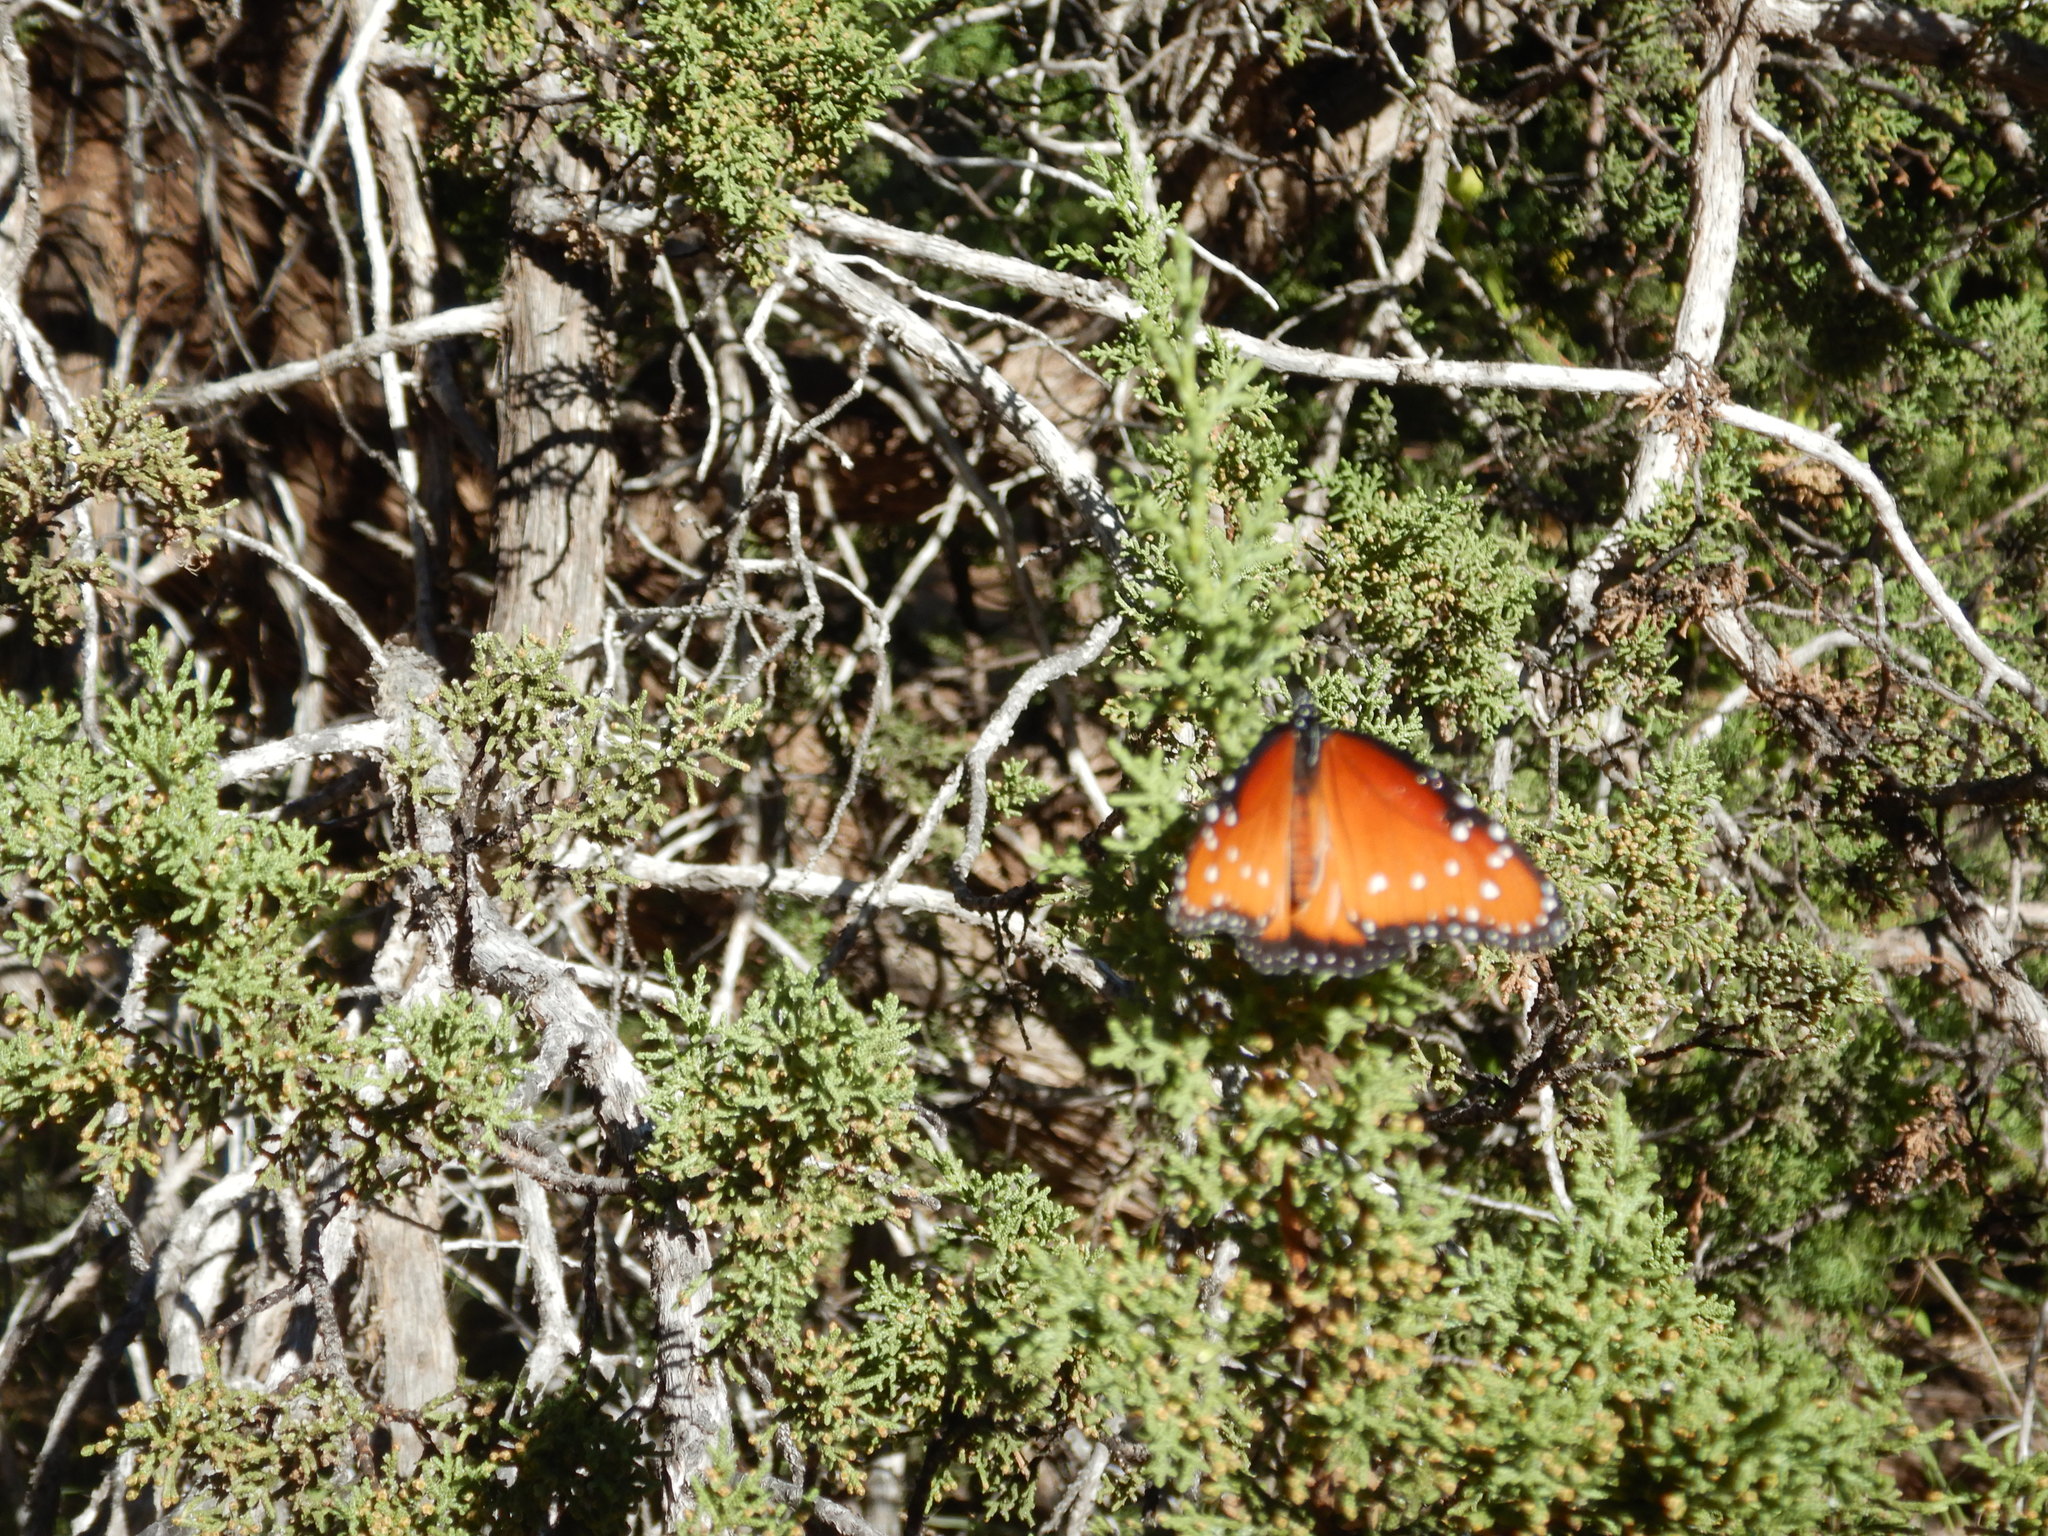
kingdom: Animalia
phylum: Arthropoda
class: Insecta
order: Lepidoptera
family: Nymphalidae
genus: Danaus
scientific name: Danaus gilippus
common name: Queen
